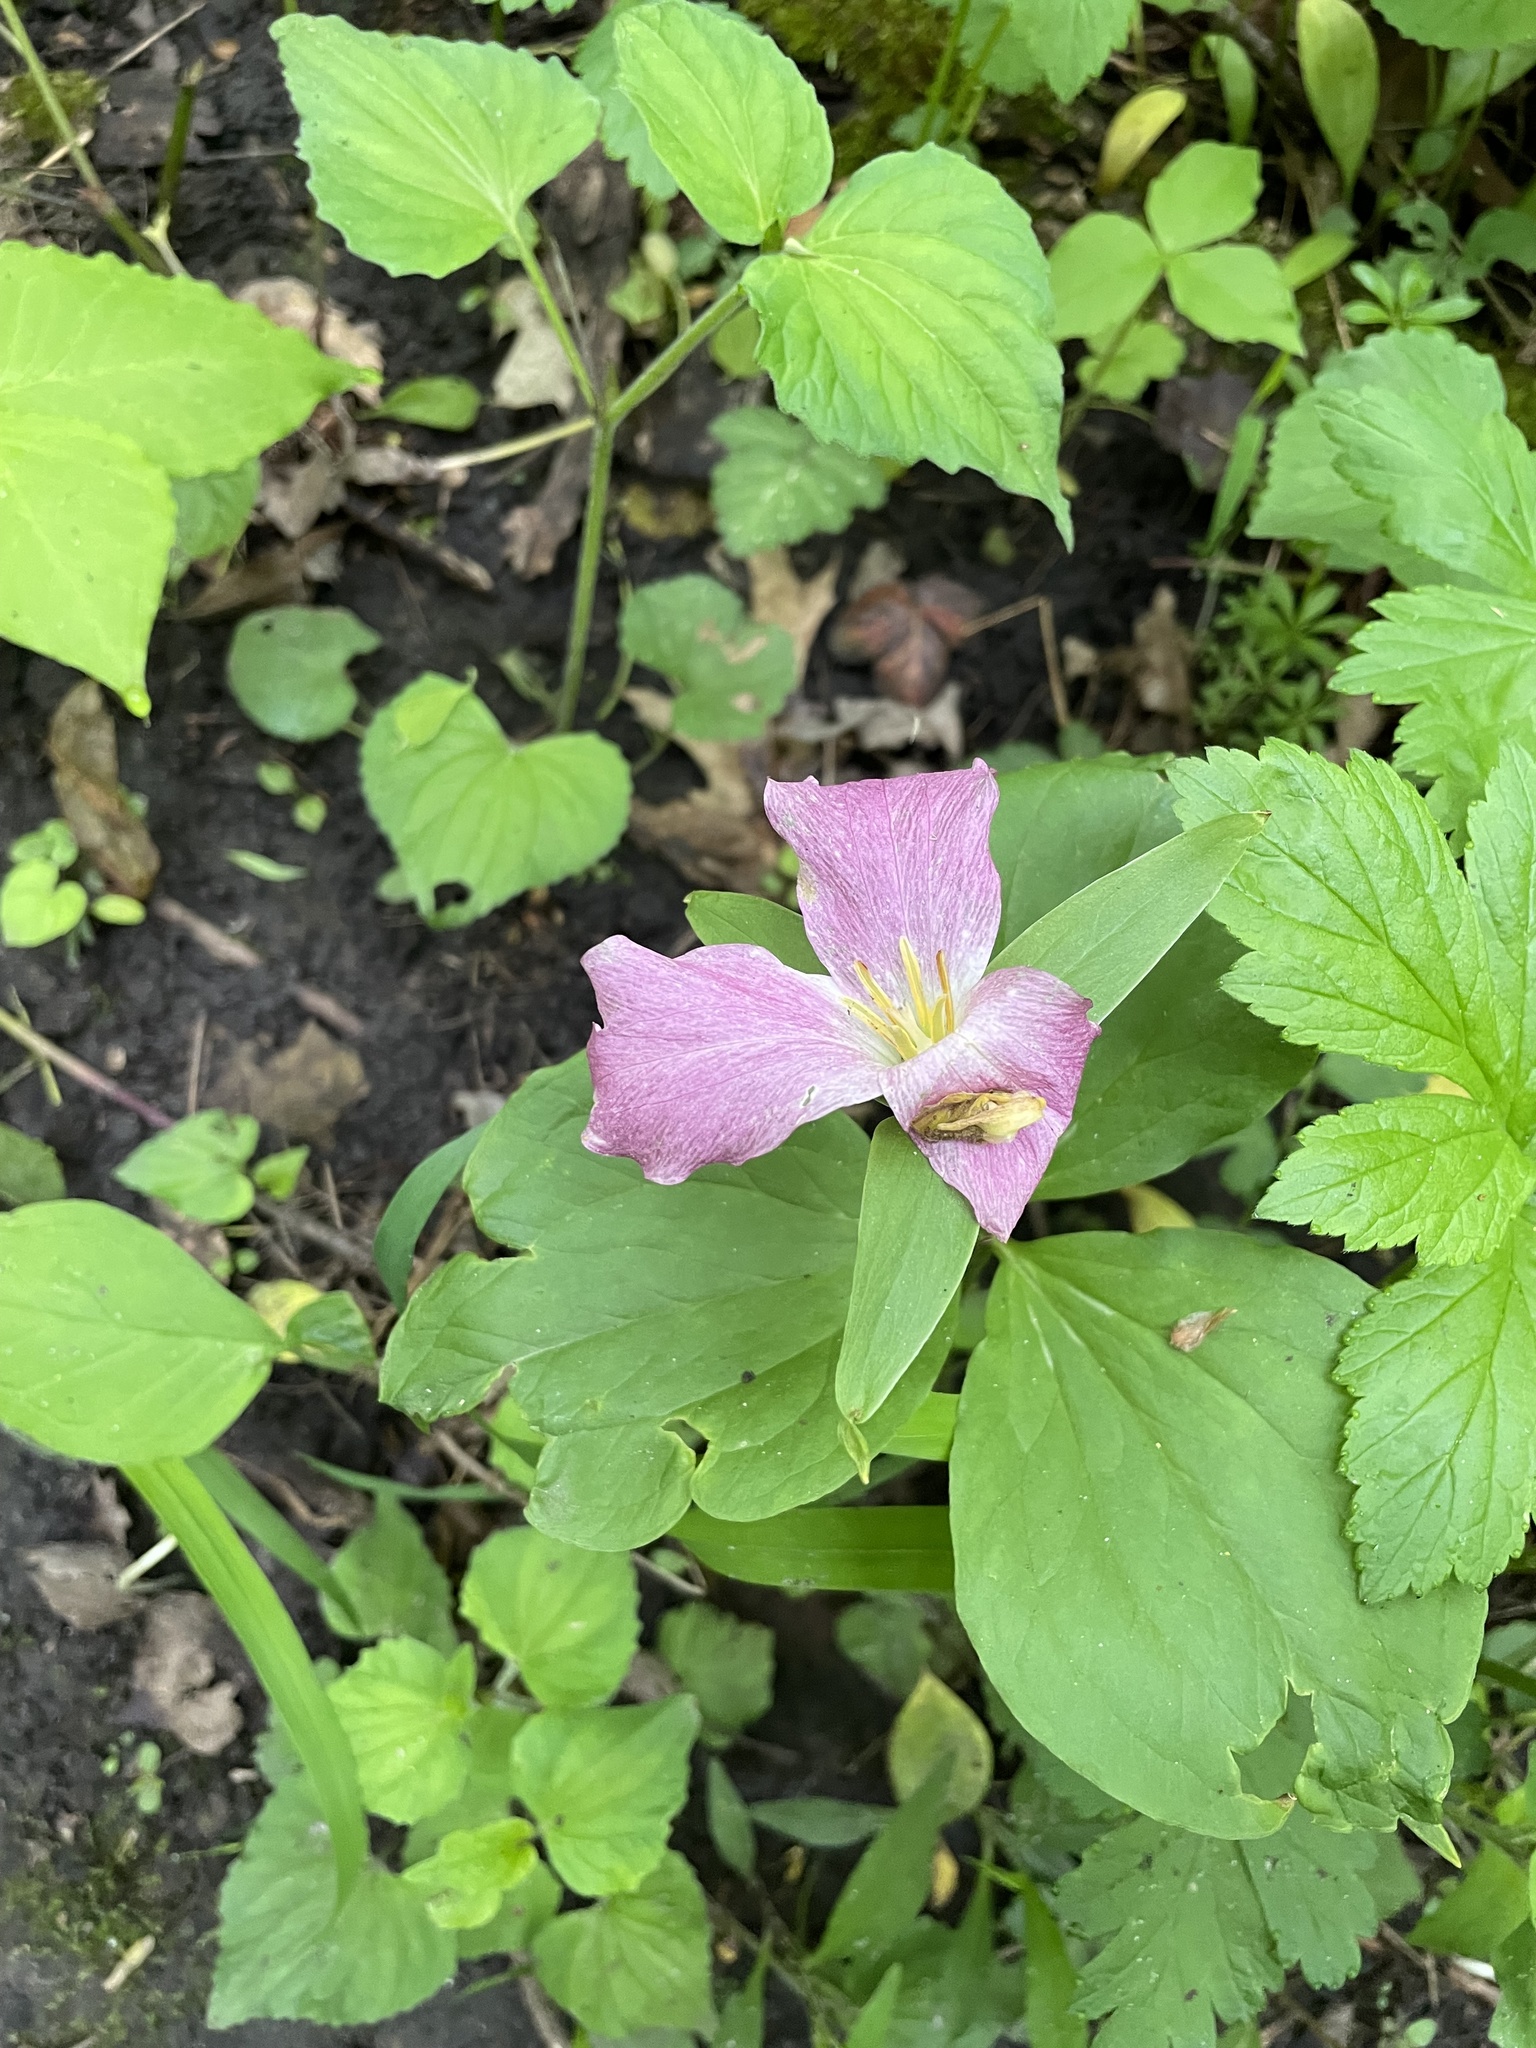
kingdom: Plantae
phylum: Tracheophyta
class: Liliopsida
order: Liliales
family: Melanthiaceae
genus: Trillium
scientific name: Trillium grandiflorum
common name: Great white trillium
